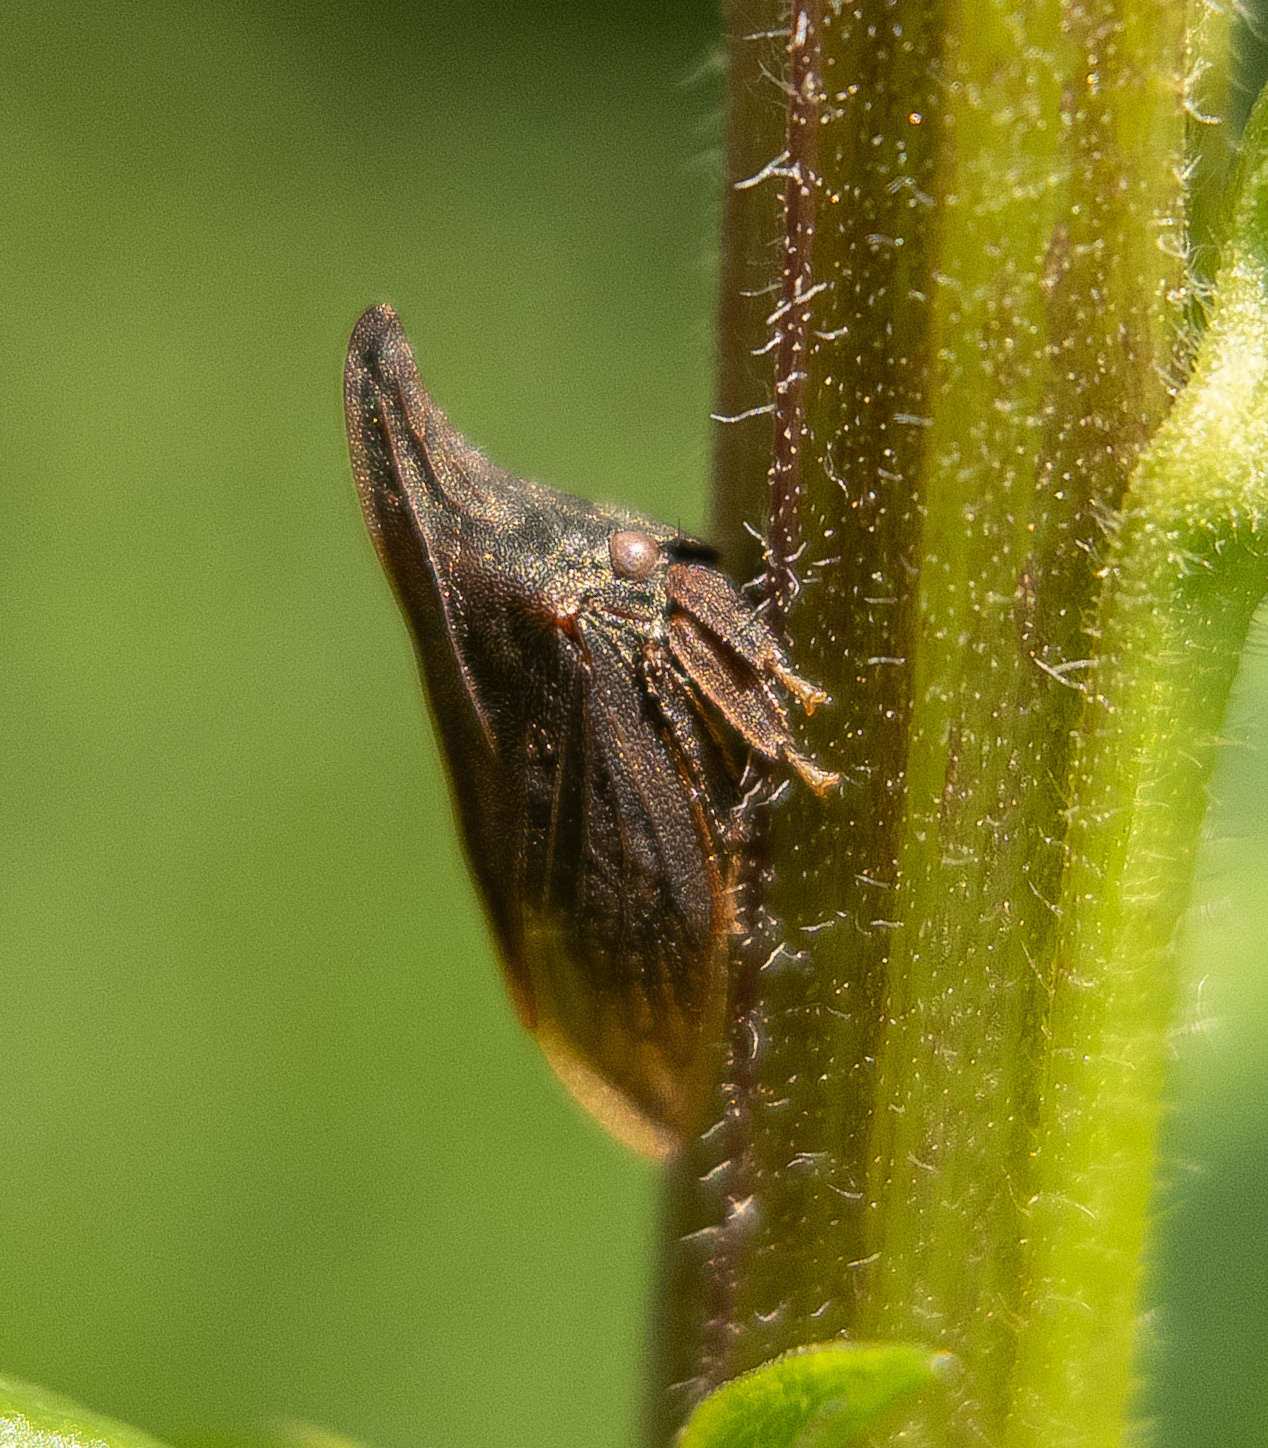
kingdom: Animalia
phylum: Arthropoda
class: Insecta
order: Hemiptera
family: Membracidae
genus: Enchenopa
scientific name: Enchenopa latipes
